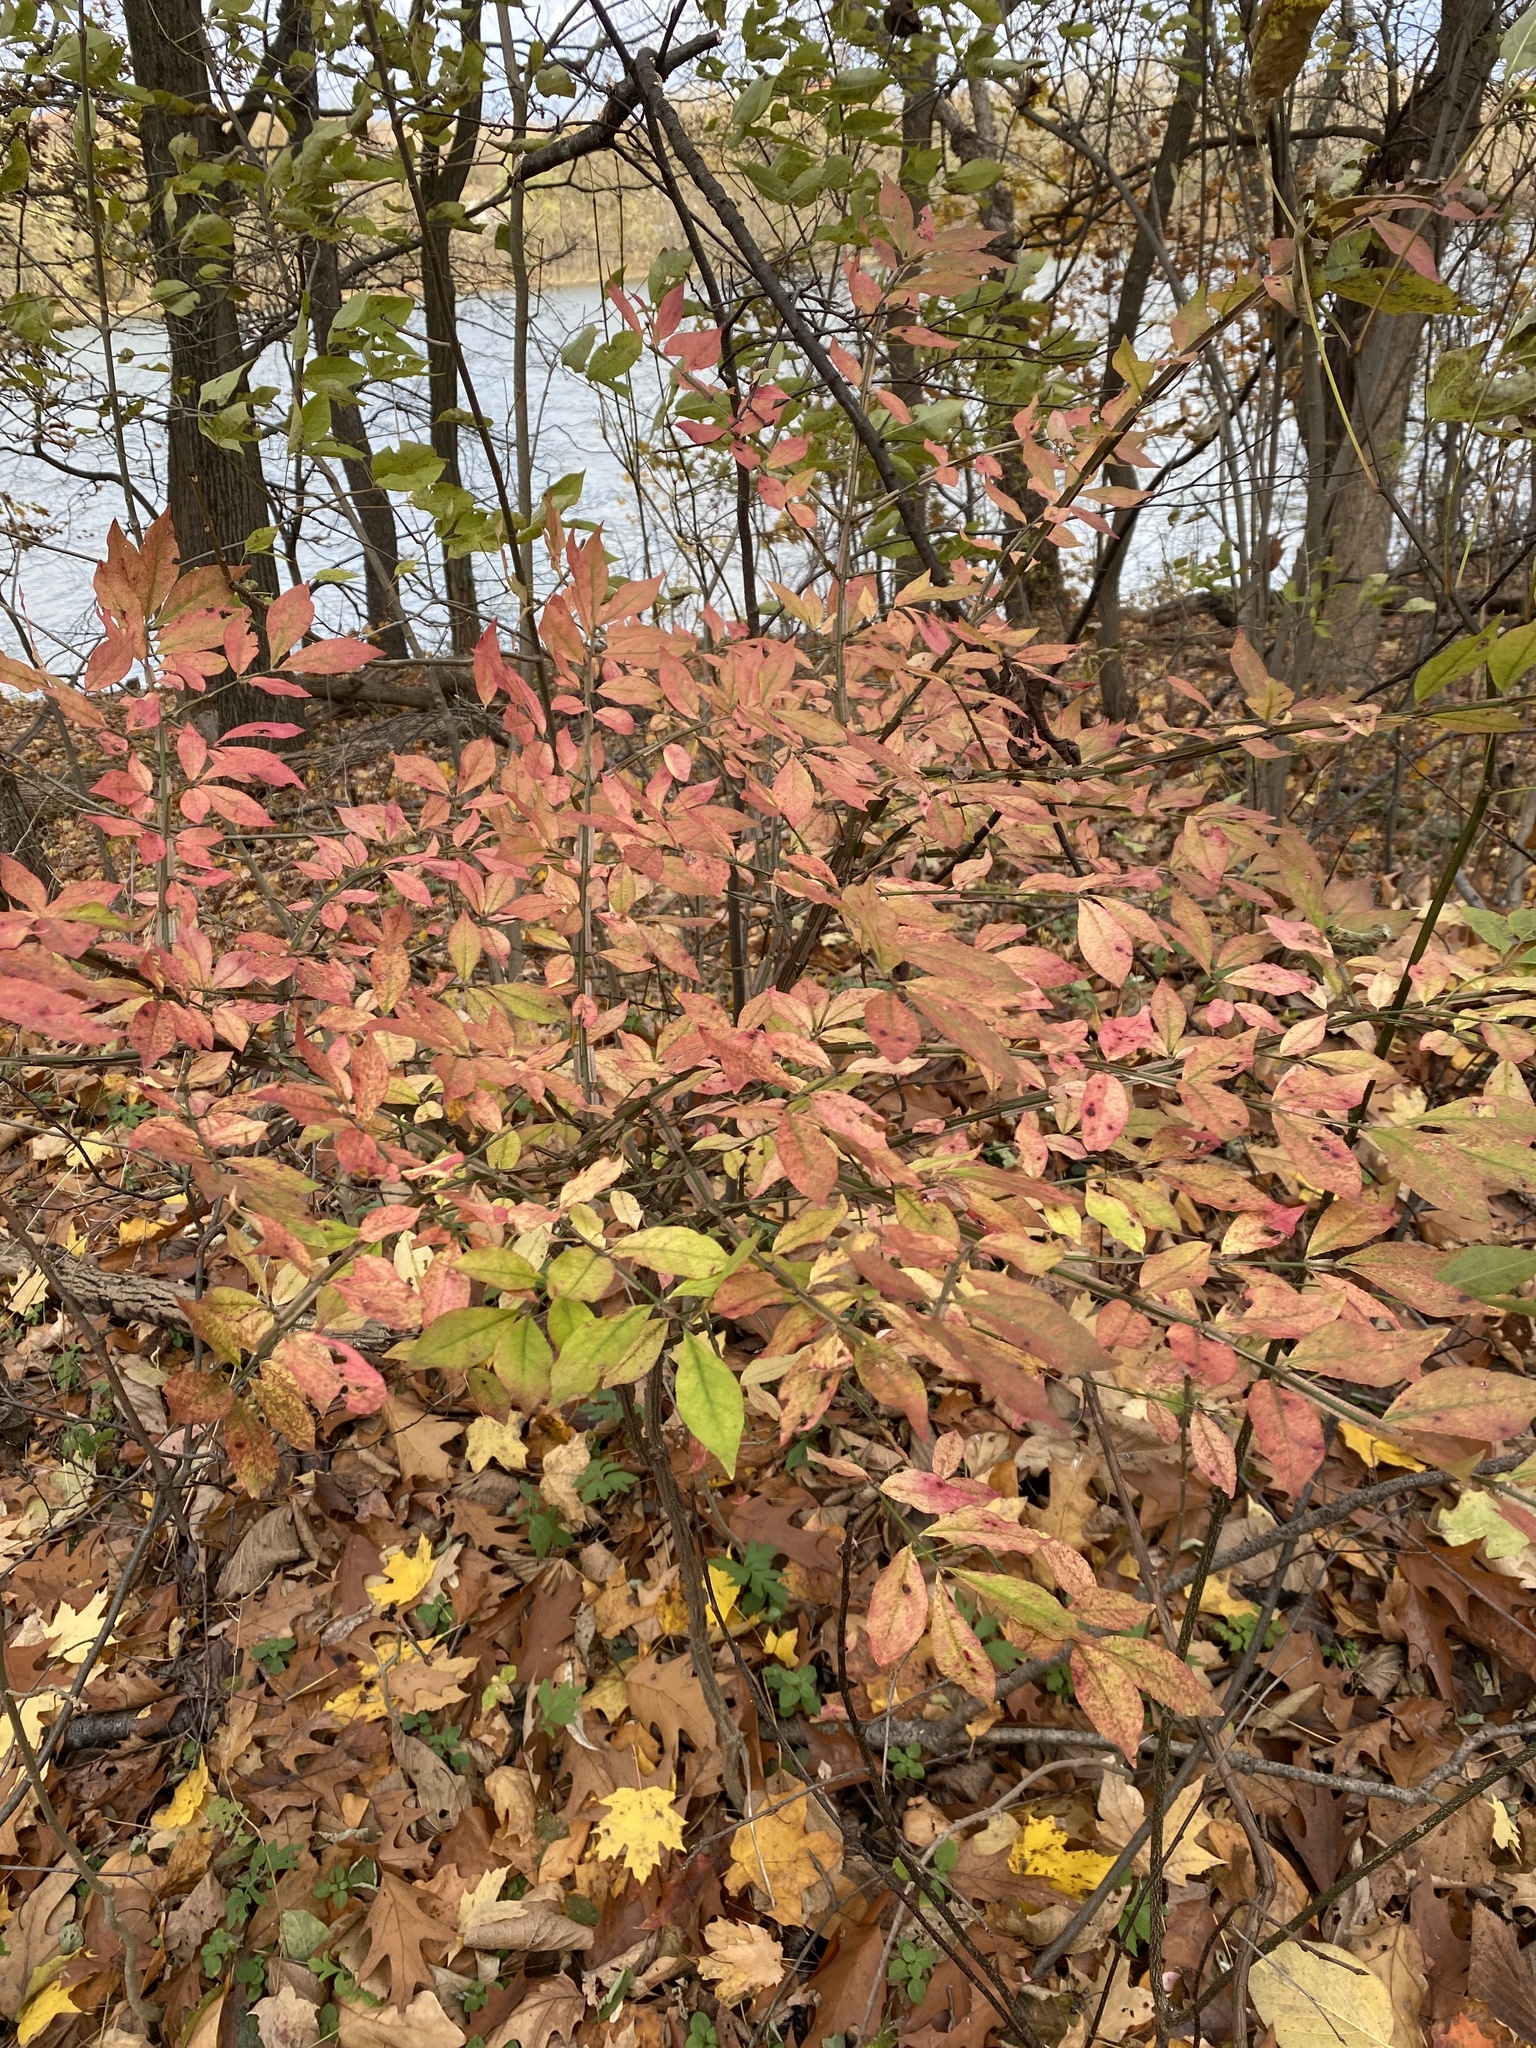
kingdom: Plantae
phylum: Tracheophyta
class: Magnoliopsida
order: Celastrales
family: Celastraceae
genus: Euonymus
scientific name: Euonymus alatus
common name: Winged euonymus
